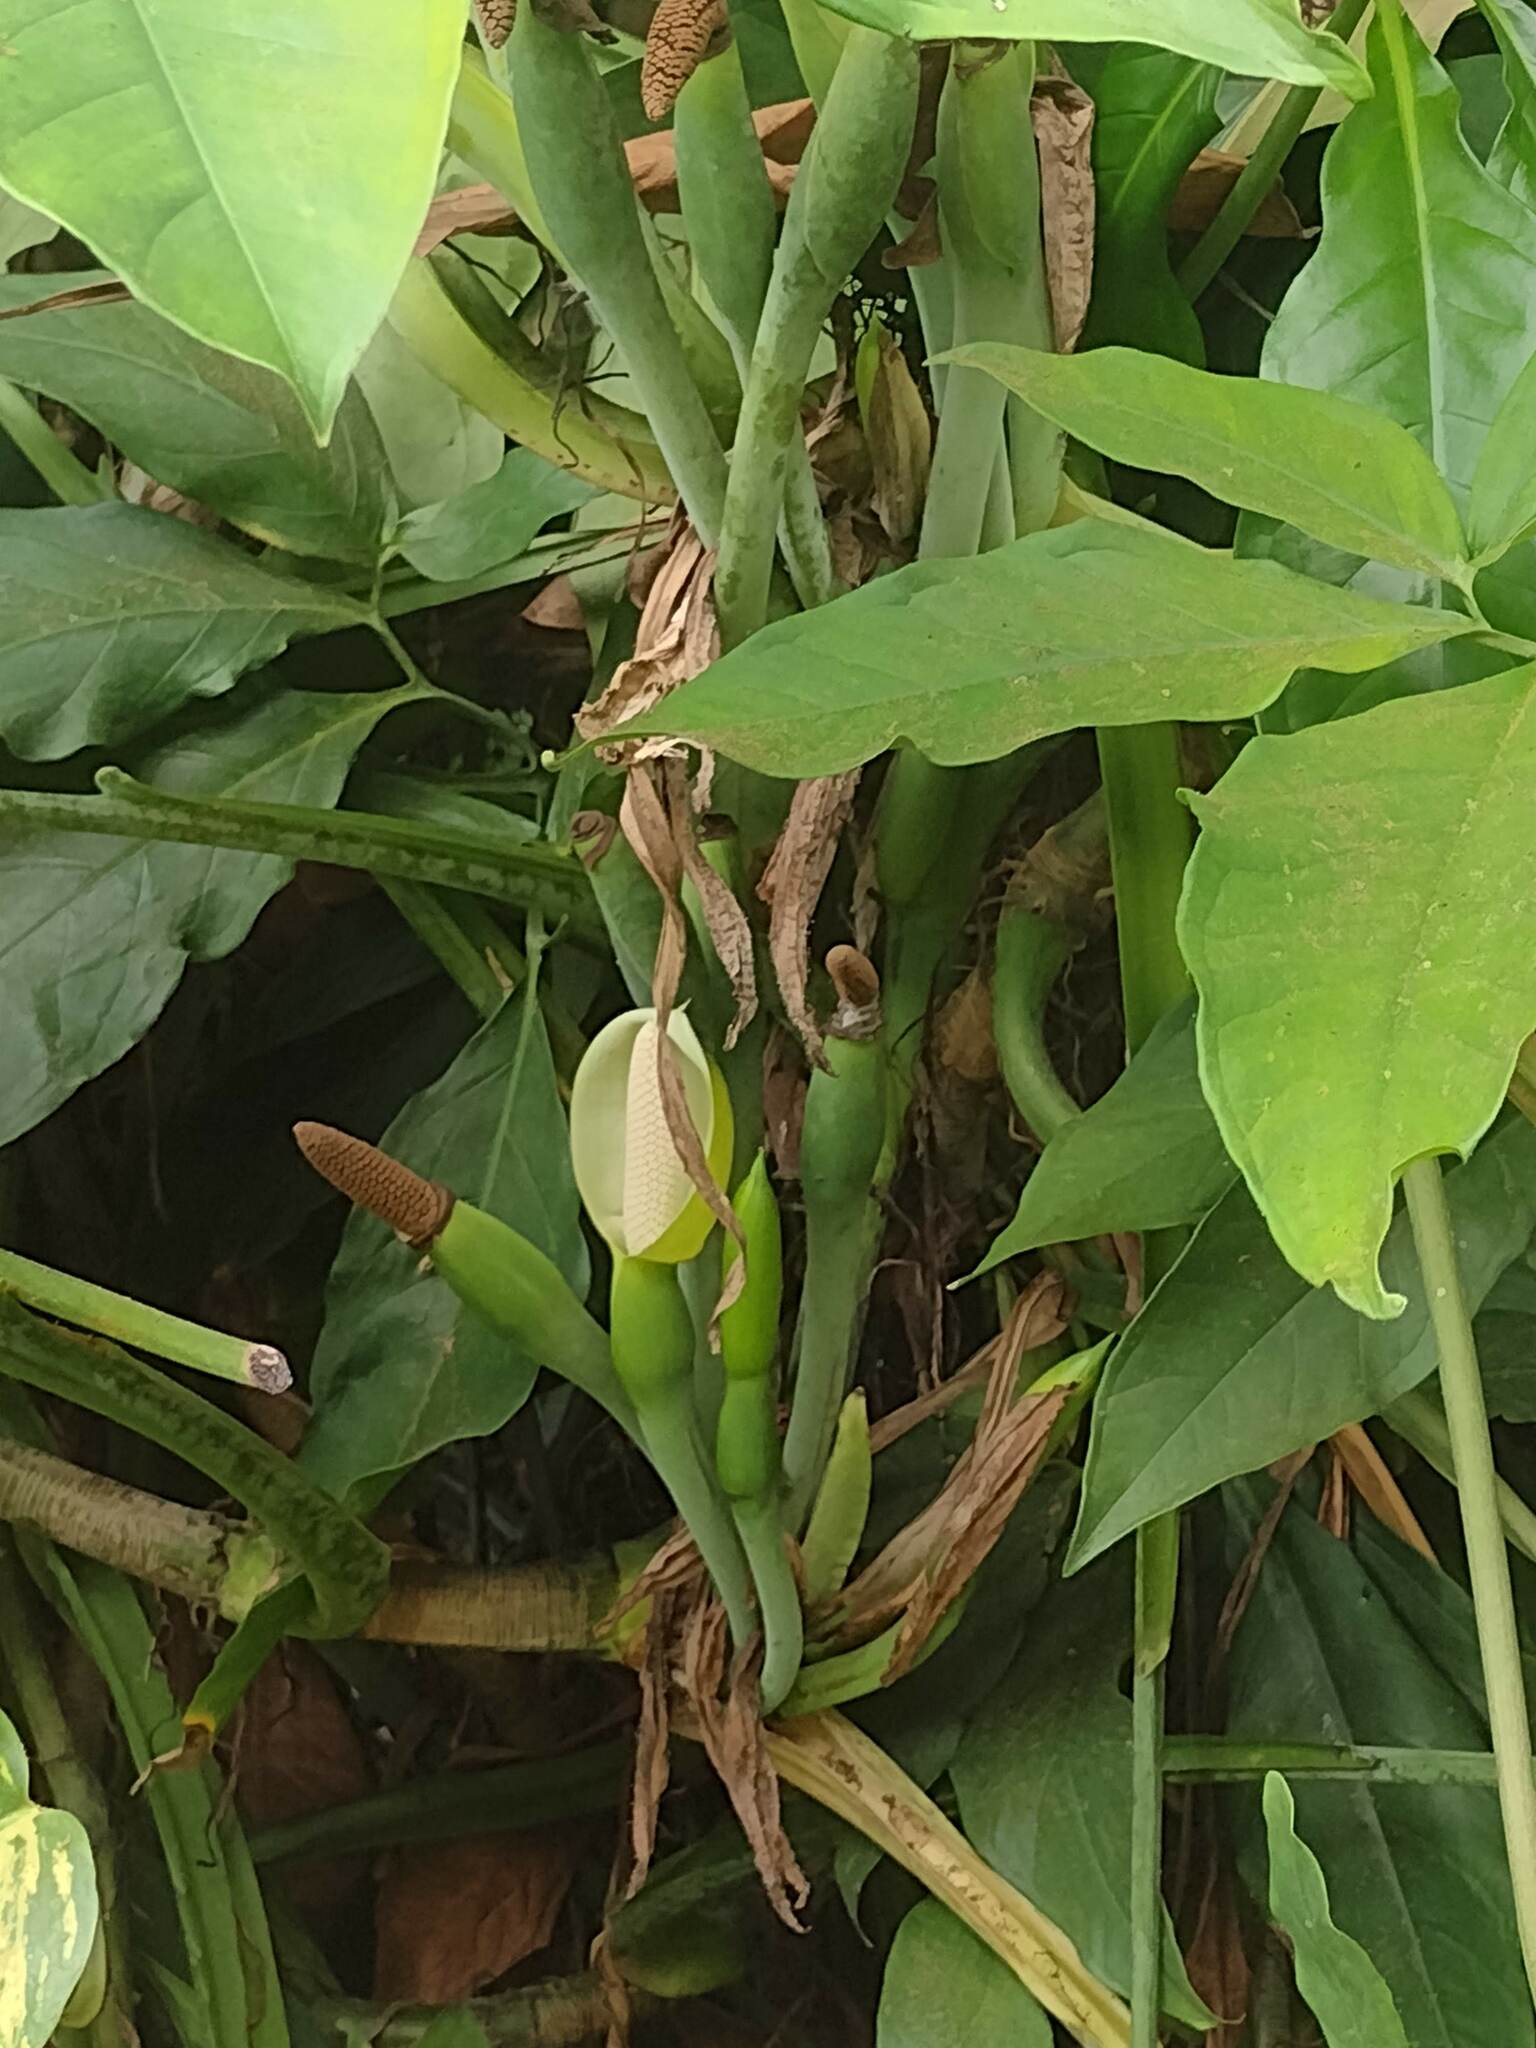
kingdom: Plantae
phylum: Tracheophyta
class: Liliopsida
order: Alismatales
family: Araceae
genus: Syngonium
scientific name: Syngonium podophyllum
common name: American evergreen
